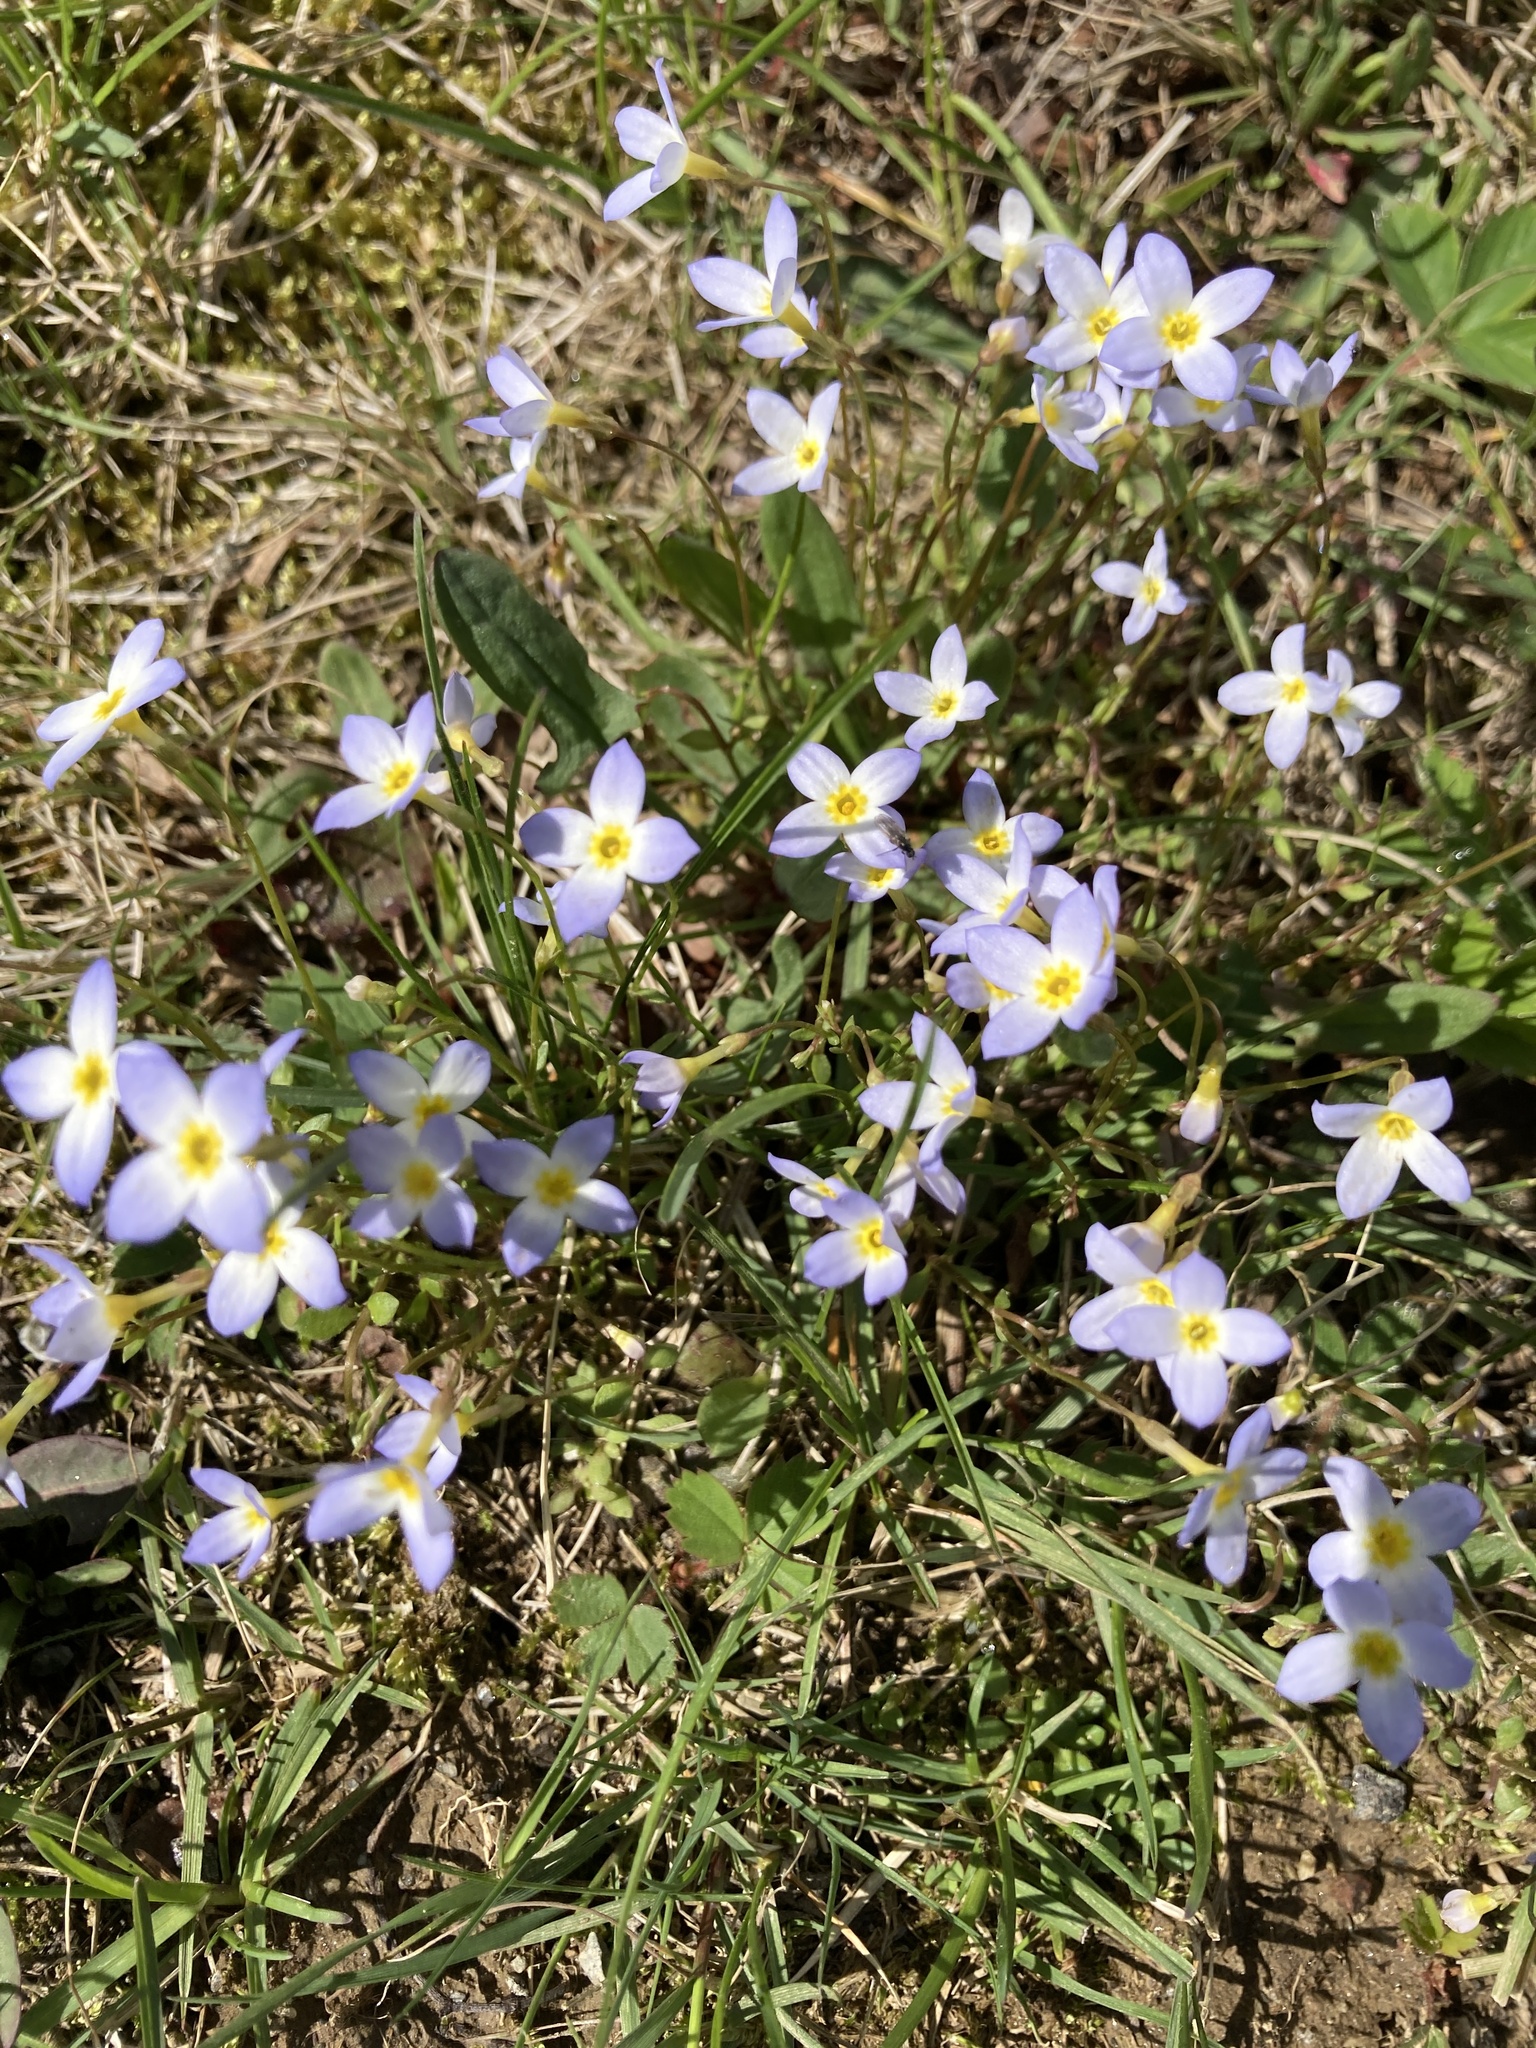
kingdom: Plantae
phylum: Tracheophyta
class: Magnoliopsida
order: Gentianales
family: Rubiaceae
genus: Houstonia
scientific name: Houstonia caerulea
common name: Bluets
